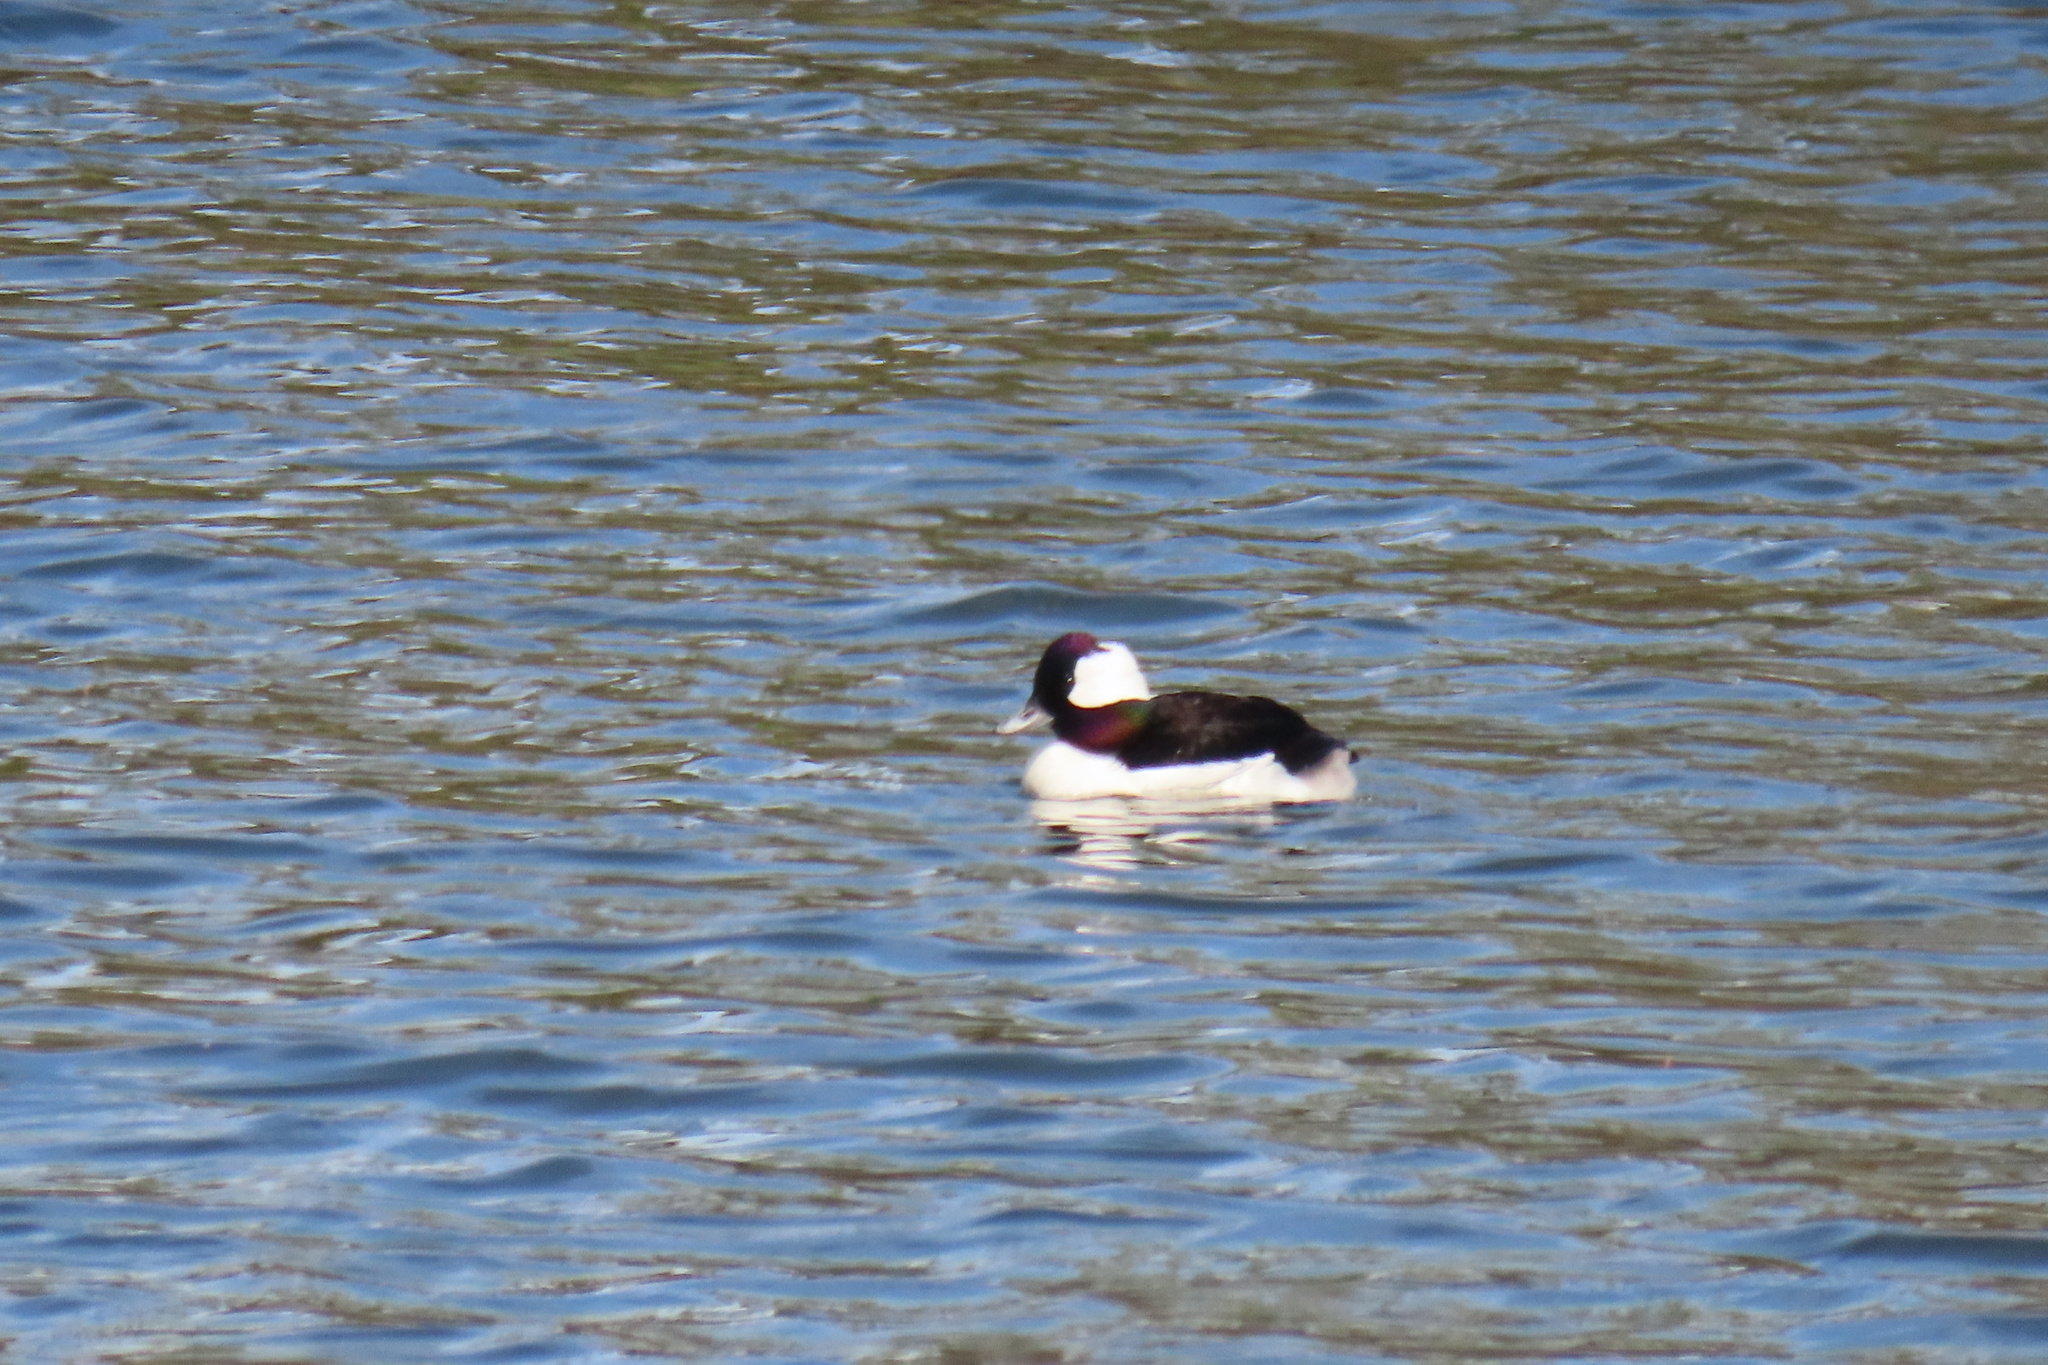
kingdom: Animalia
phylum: Chordata
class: Aves
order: Anseriformes
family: Anatidae
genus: Bucephala
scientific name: Bucephala albeola
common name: Bufflehead
